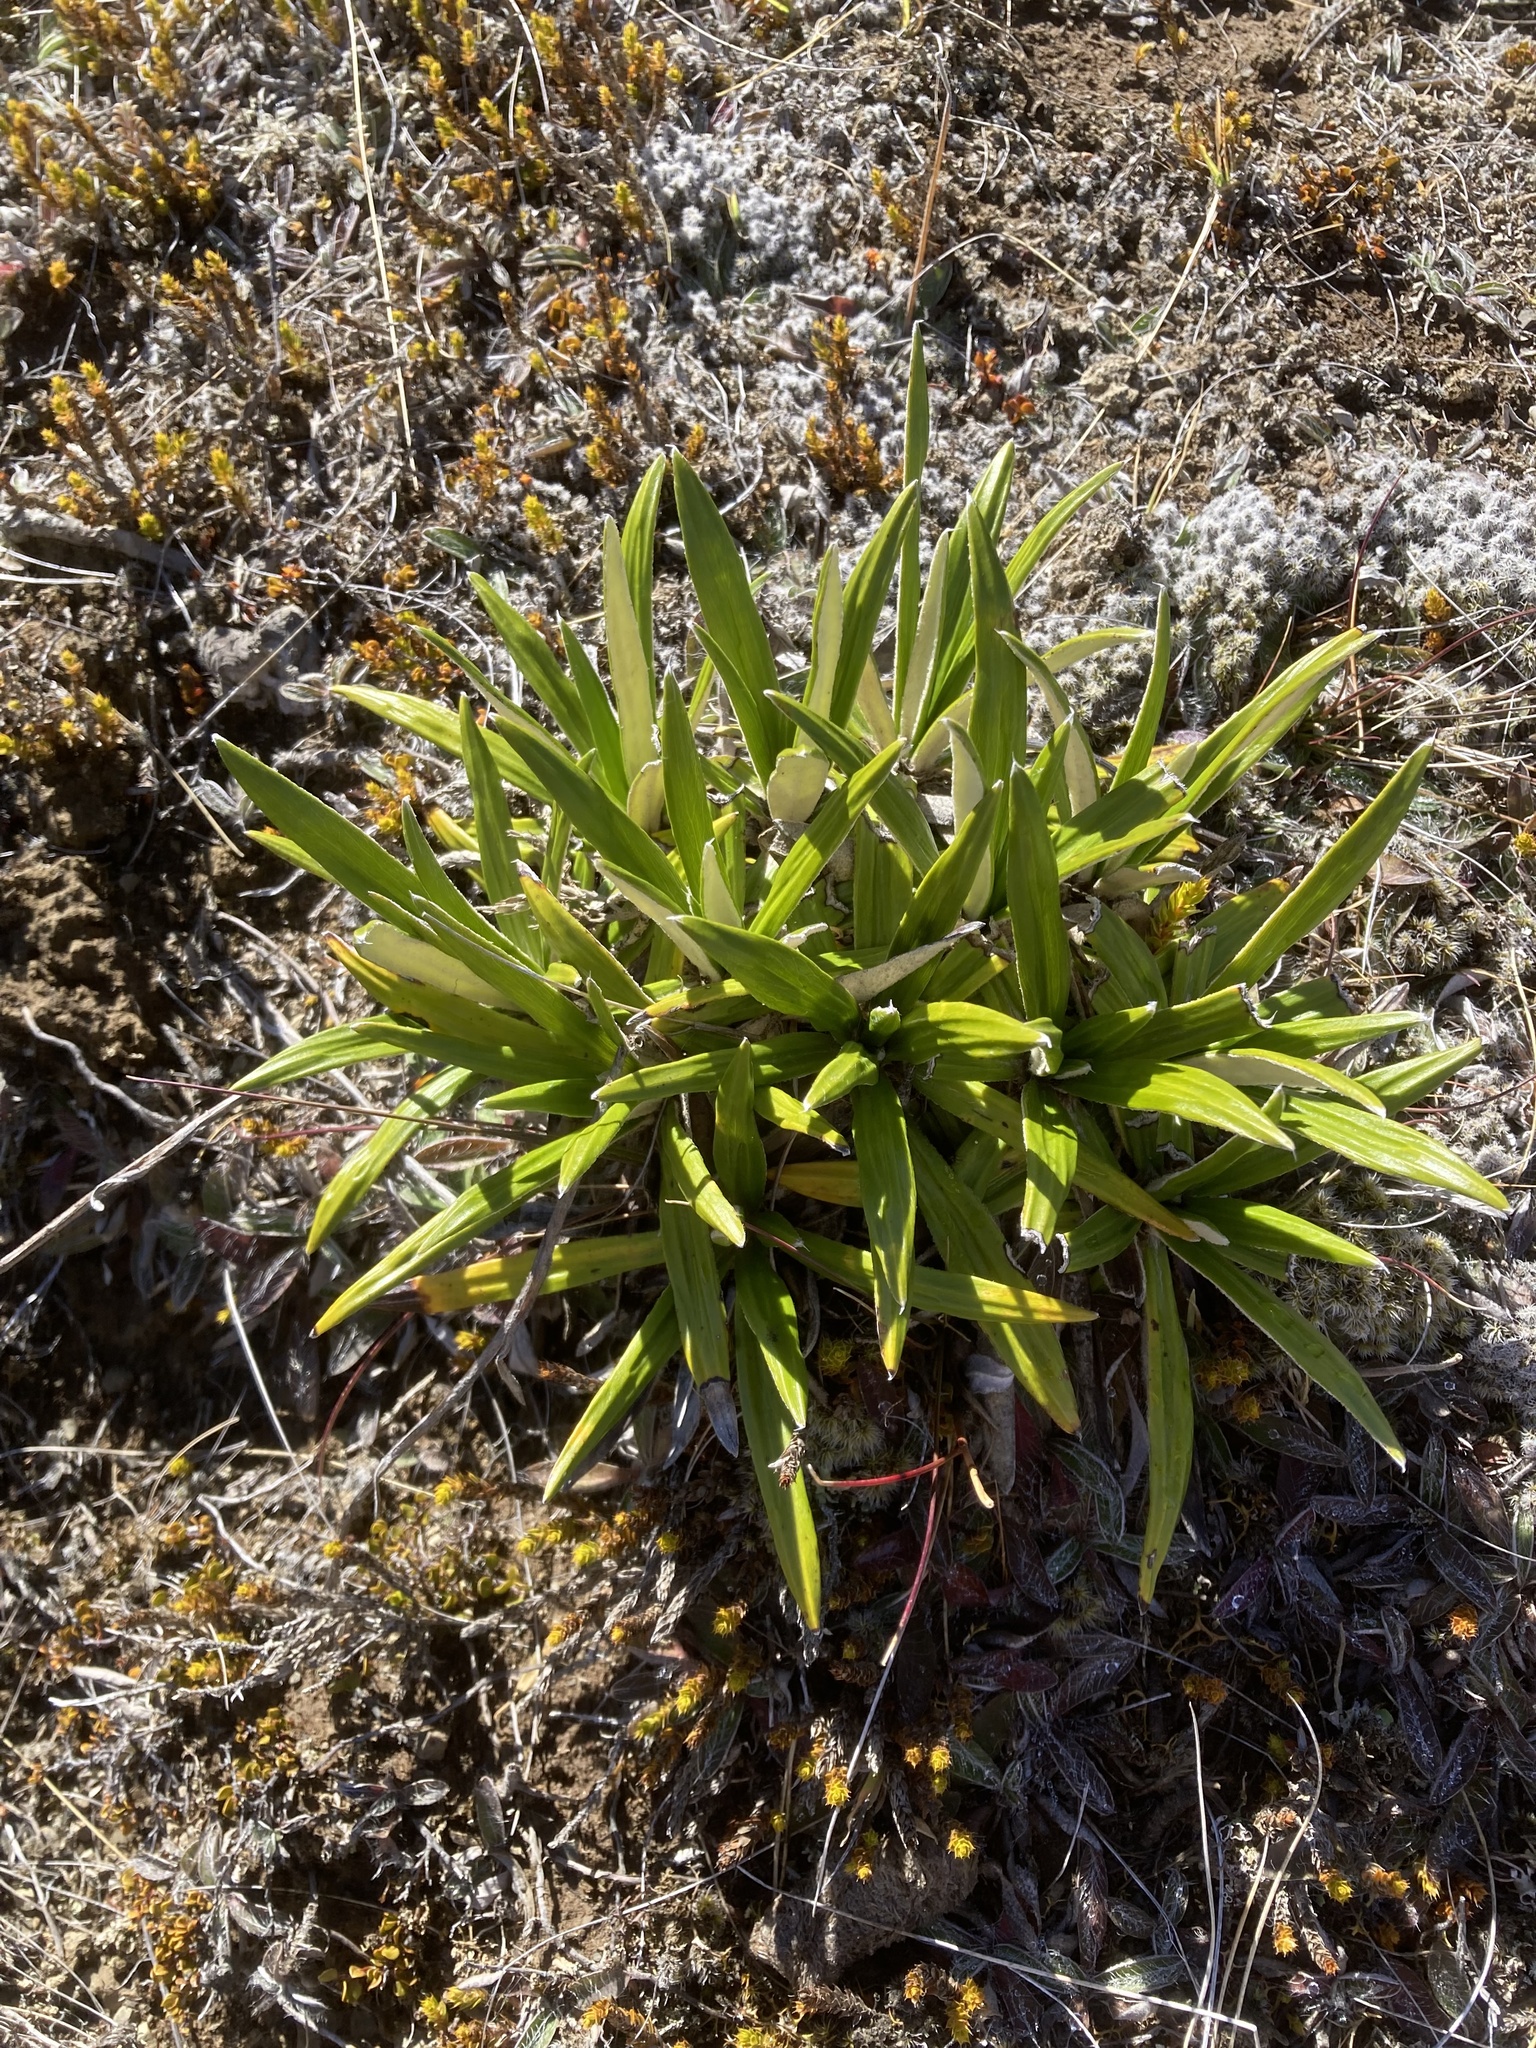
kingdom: Plantae
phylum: Tracheophyta
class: Magnoliopsida
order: Asterales
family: Asteraceae
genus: Celmisia
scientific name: Celmisia spectabilis
